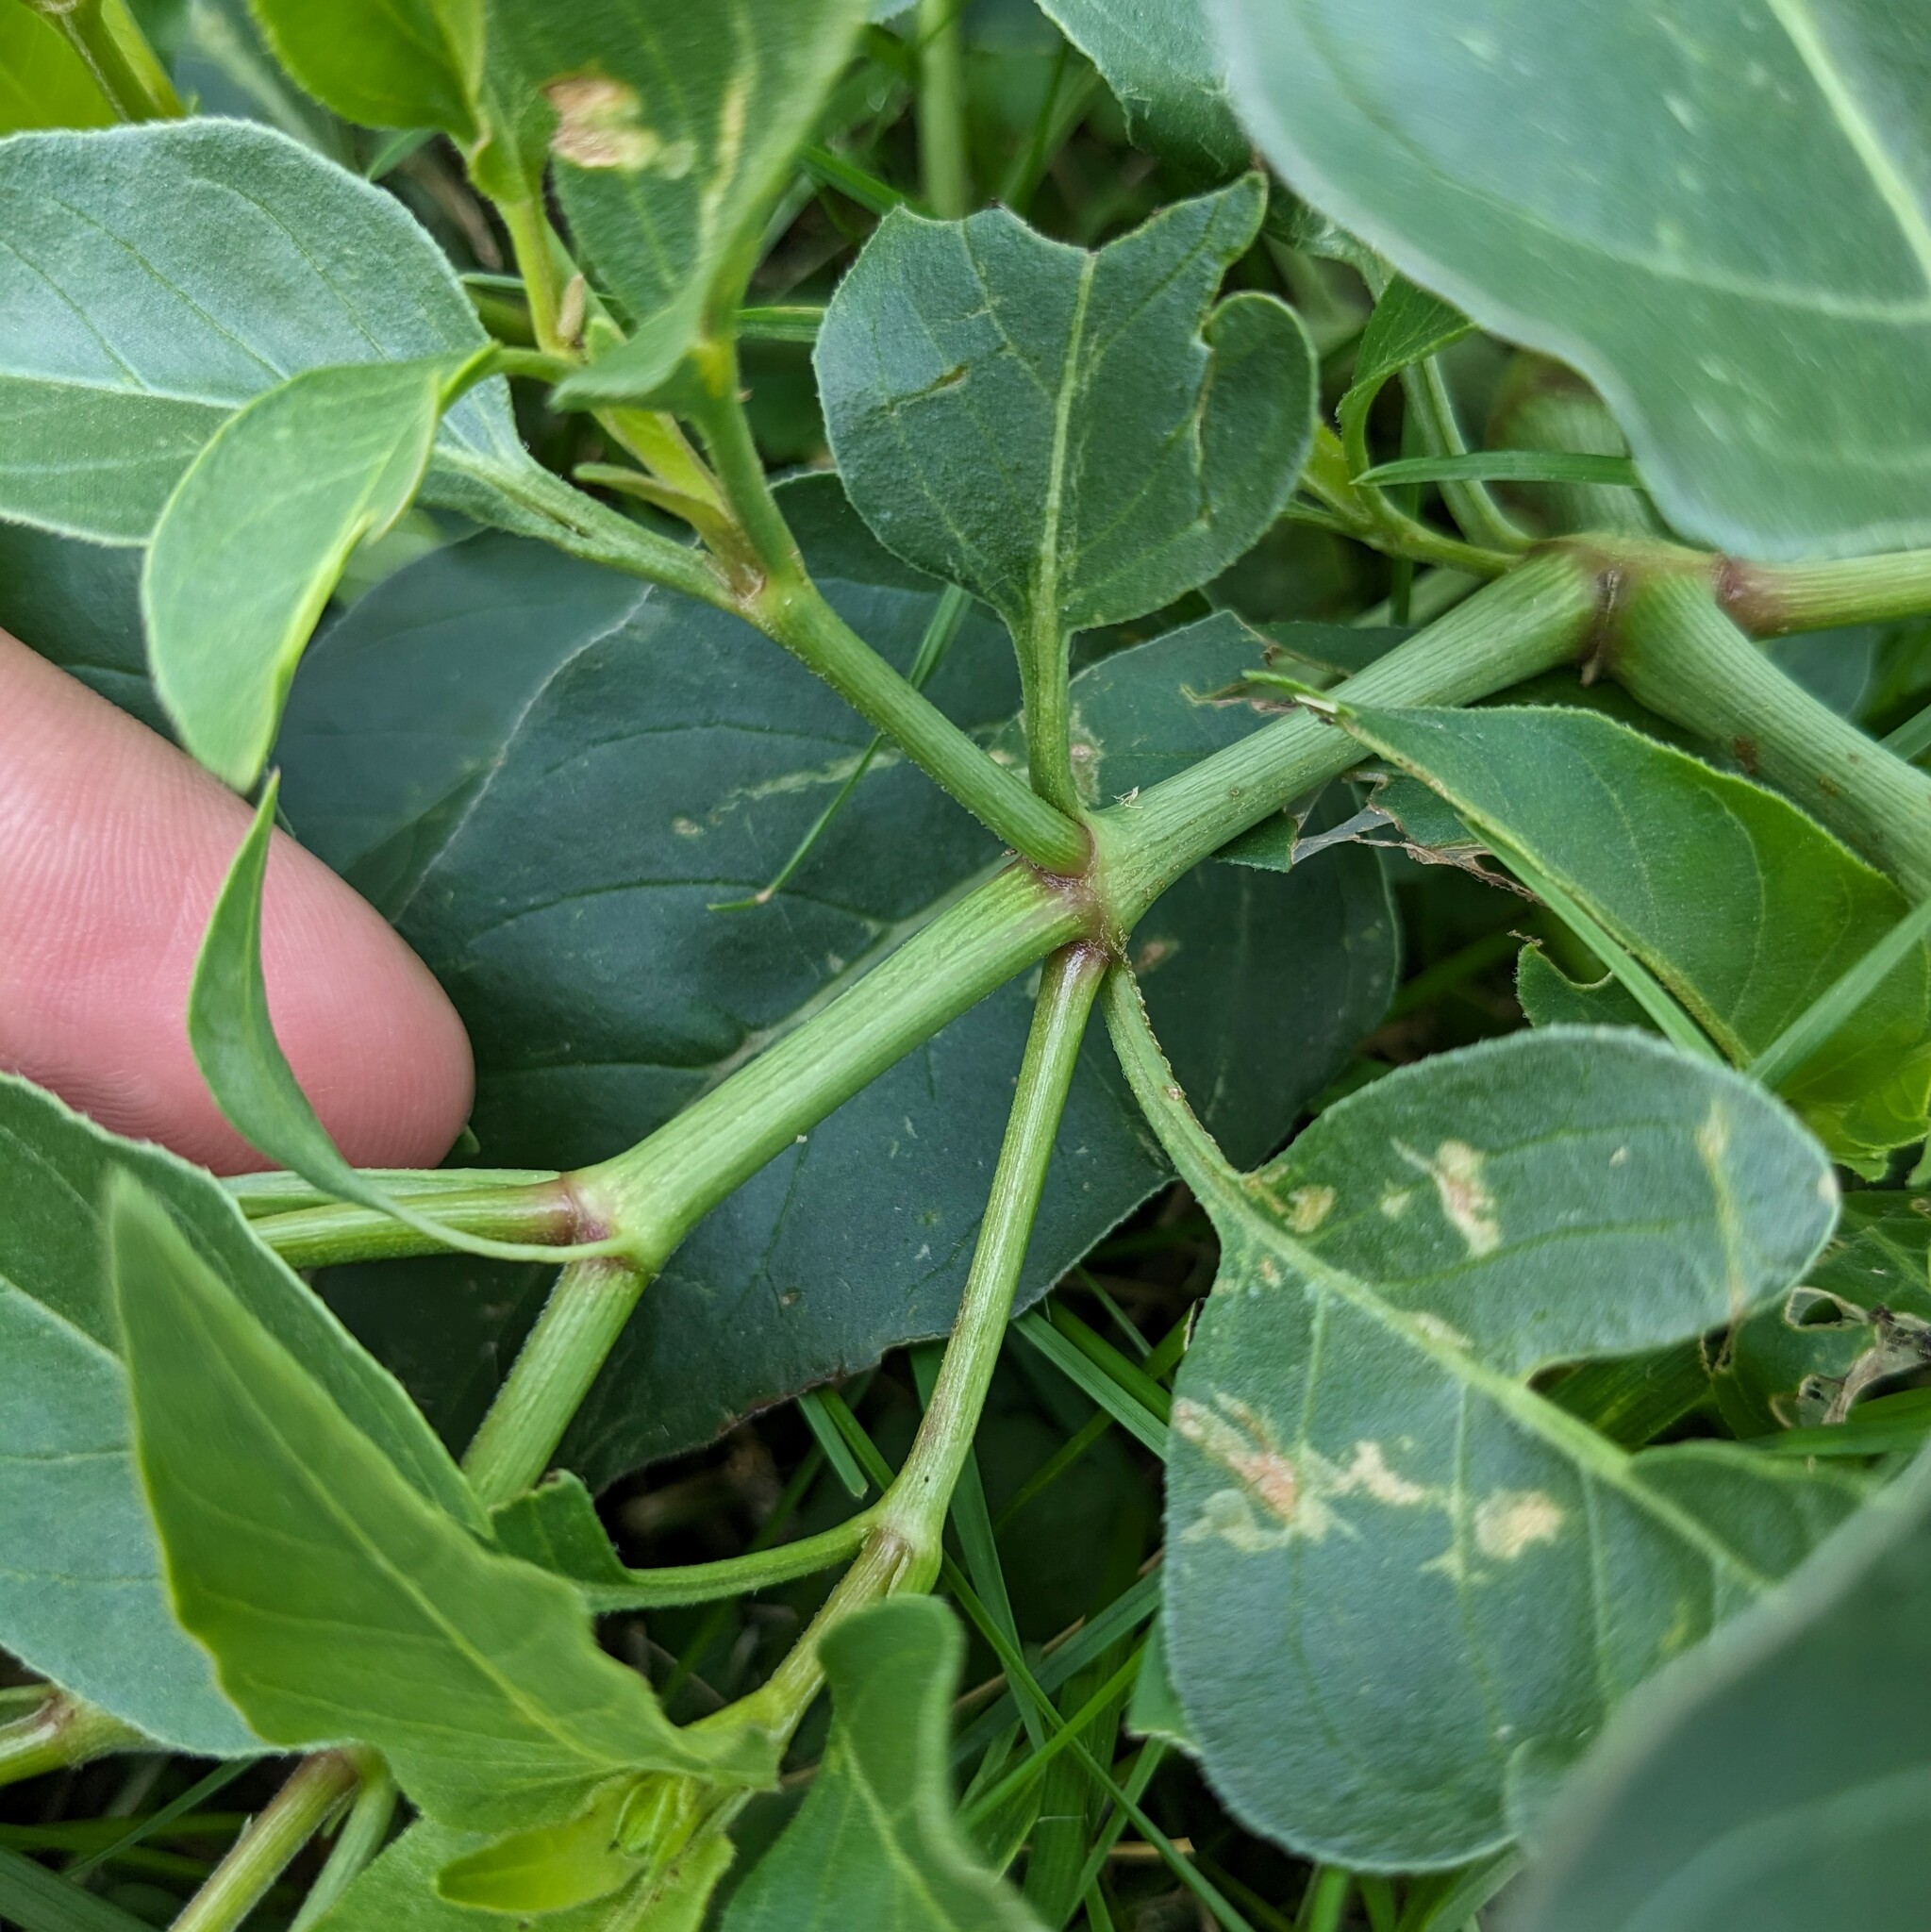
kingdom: Plantae
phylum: Tracheophyta
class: Magnoliopsida
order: Caryophyllales
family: Nyctaginaceae
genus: Mirabilis
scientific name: Mirabilis nyctaginea
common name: Umbrella wort
